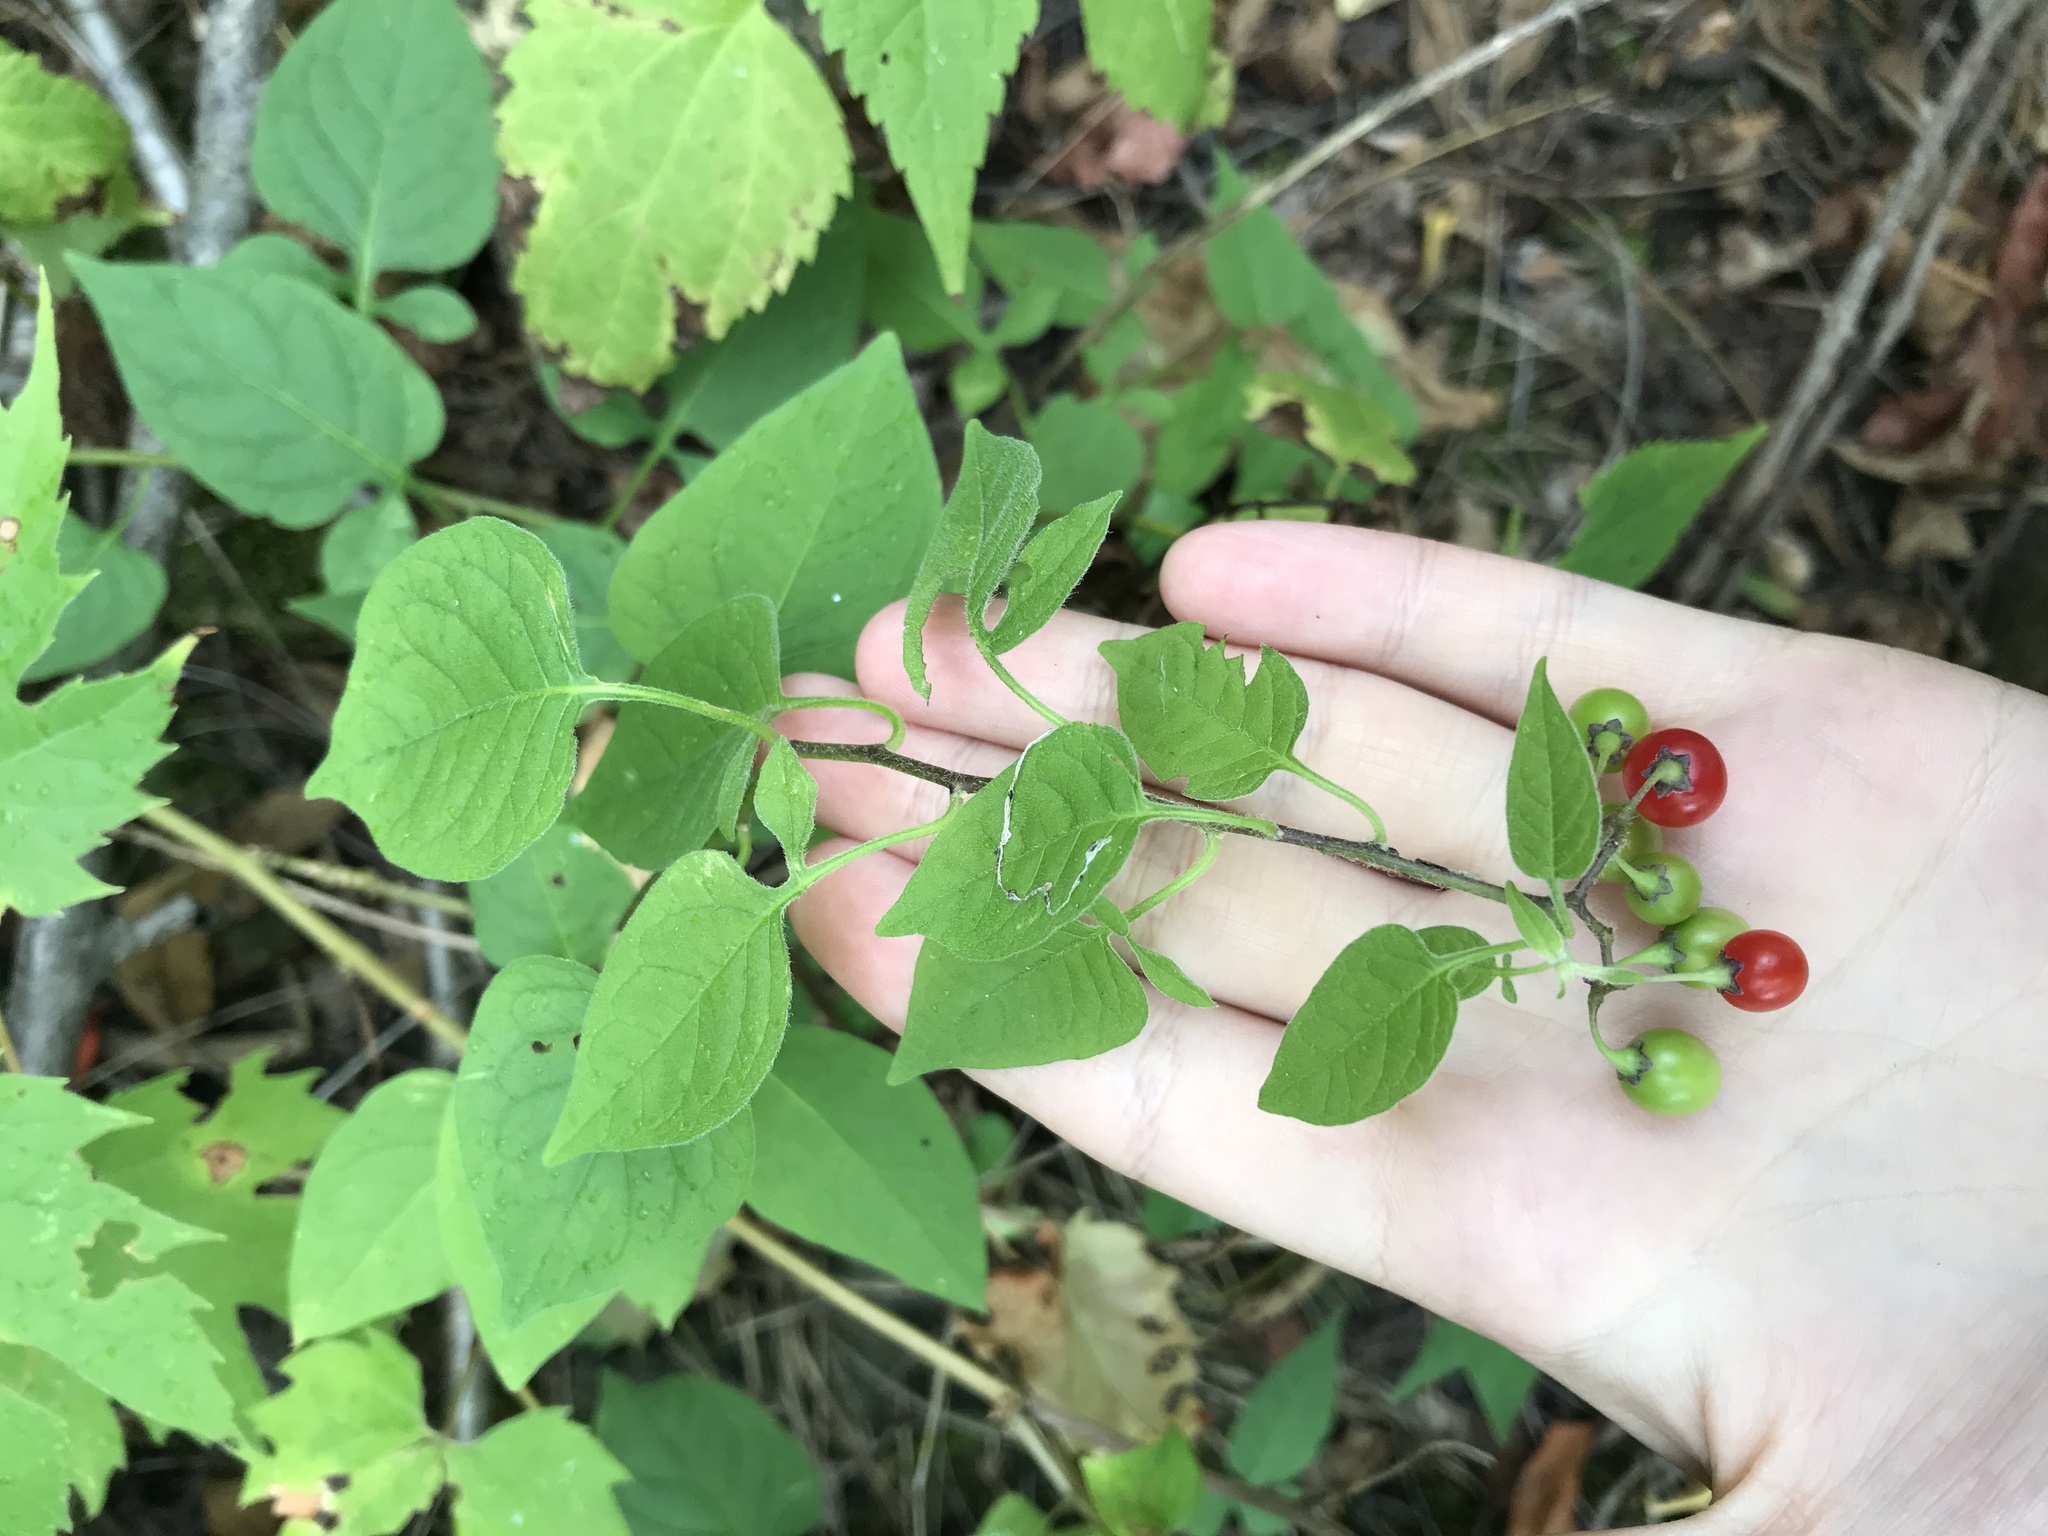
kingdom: Plantae
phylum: Tracheophyta
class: Magnoliopsida
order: Solanales
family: Solanaceae
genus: Solanum
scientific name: Solanum dulcamara
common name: Climbing nightshade
